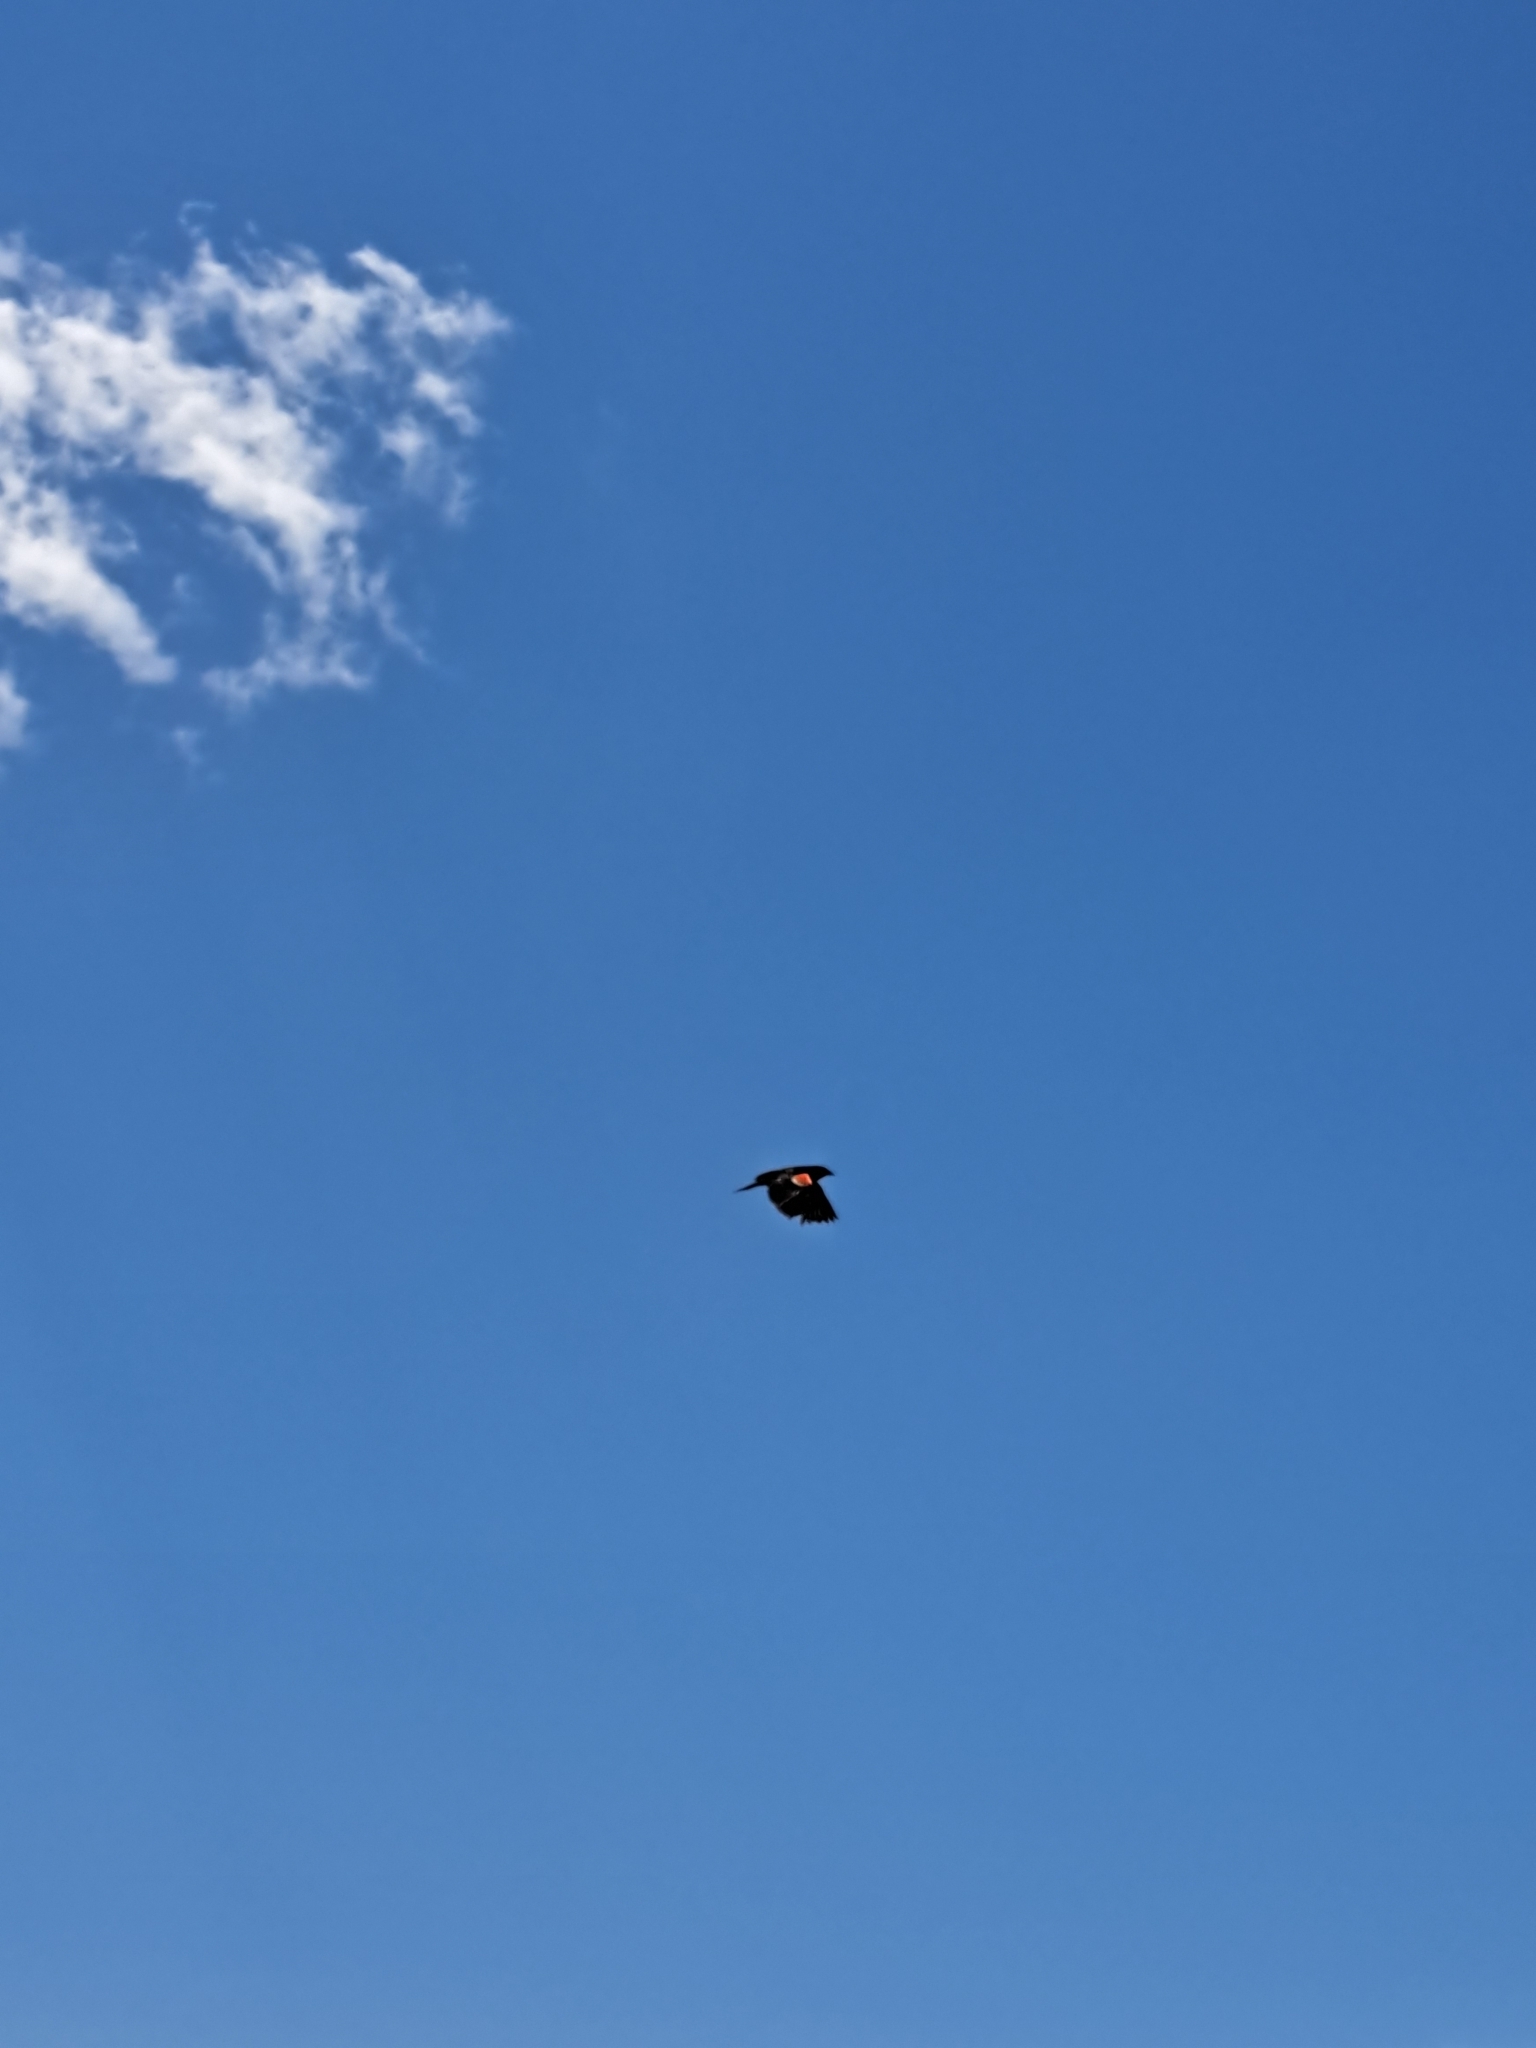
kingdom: Animalia
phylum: Chordata
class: Aves
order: Passeriformes
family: Icteridae
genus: Agelaius
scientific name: Agelaius phoeniceus
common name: Red-winged blackbird
